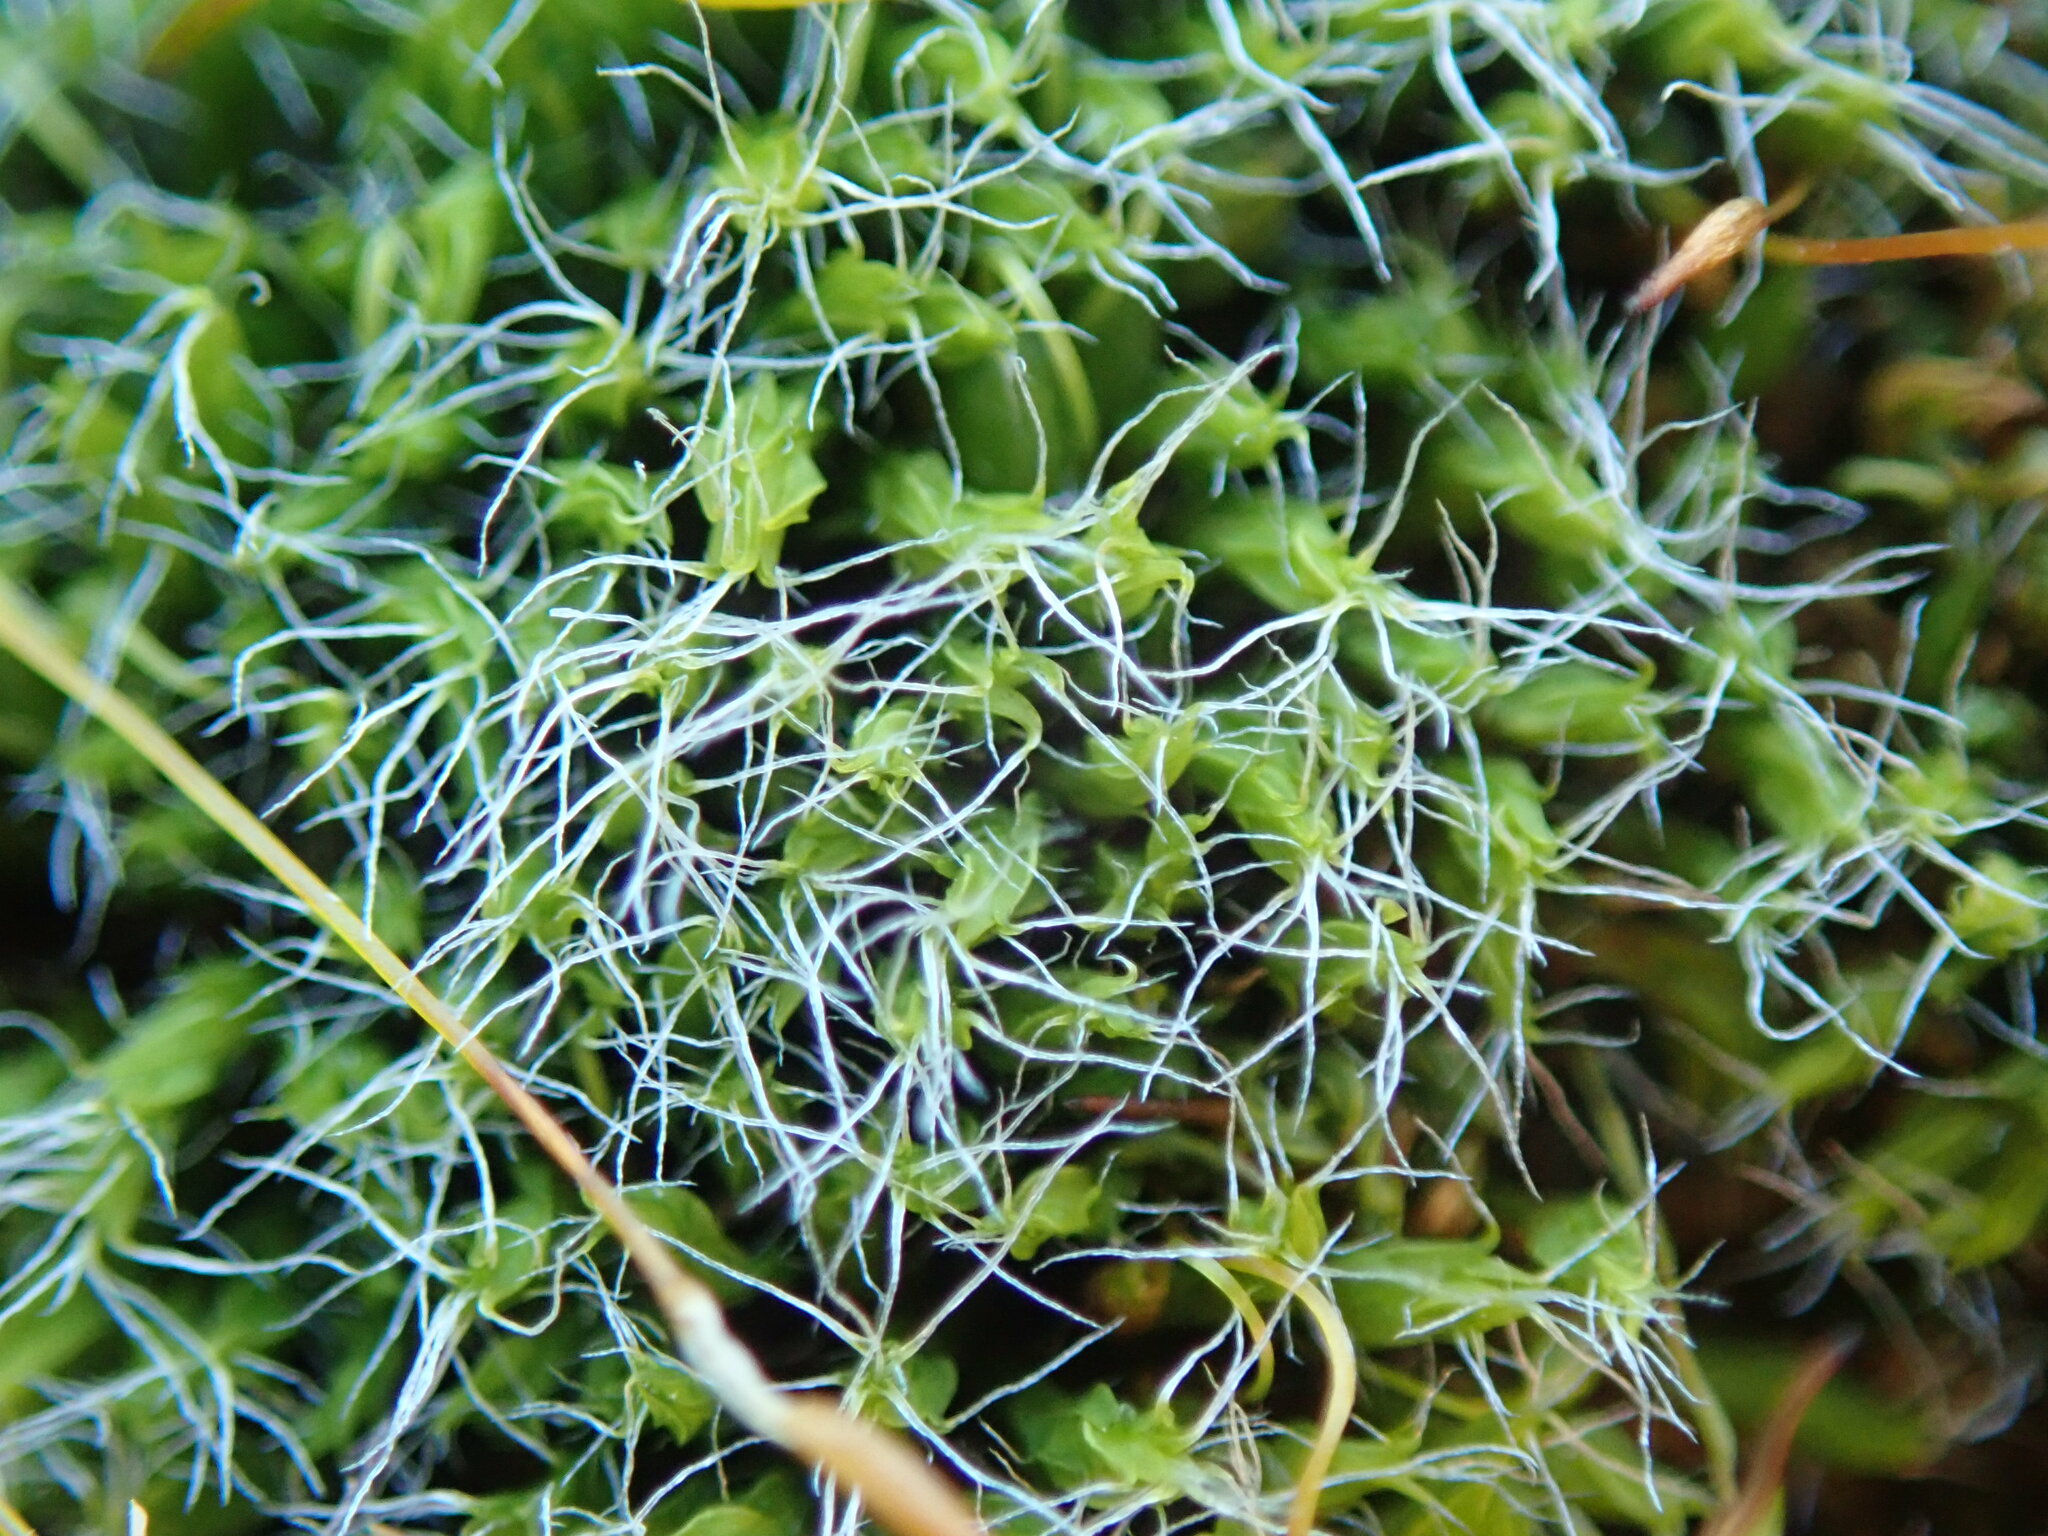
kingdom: Plantae
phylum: Bryophyta
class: Bryopsida
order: Dicranales
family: Leucobryaceae
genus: Campylopus
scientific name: Campylopus introflexus
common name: Heath star moss
